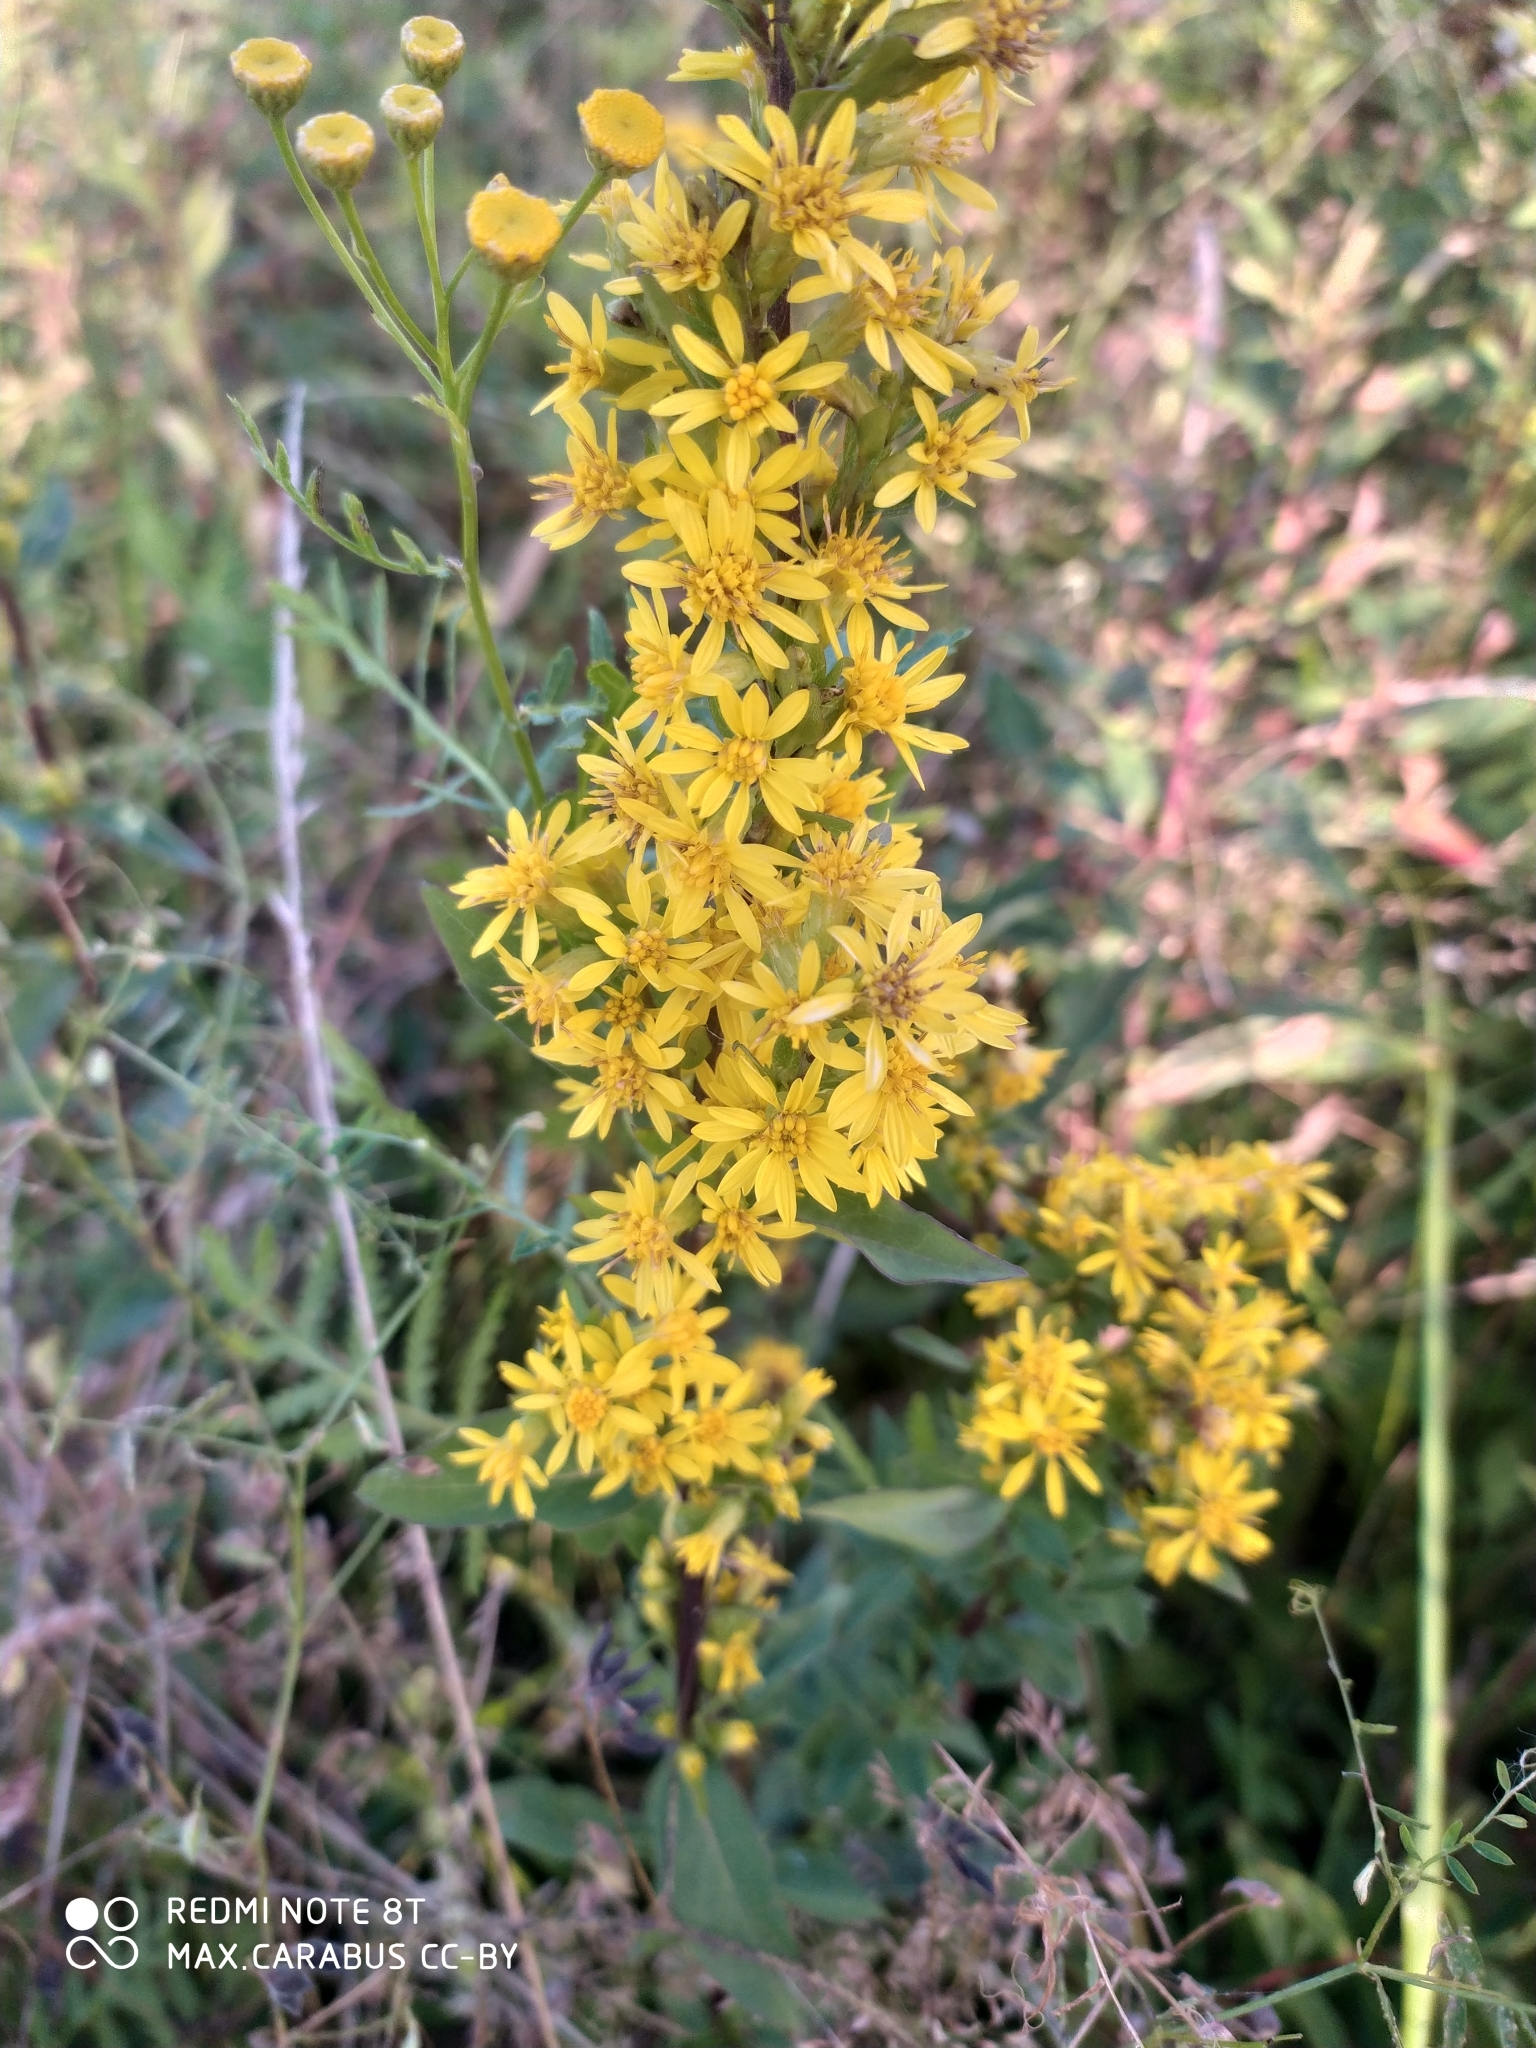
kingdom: Plantae
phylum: Tracheophyta
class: Magnoliopsida
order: Asterales
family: Asteraceae
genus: Solidago
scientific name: Solidago virgaurea
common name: Goldenrod
